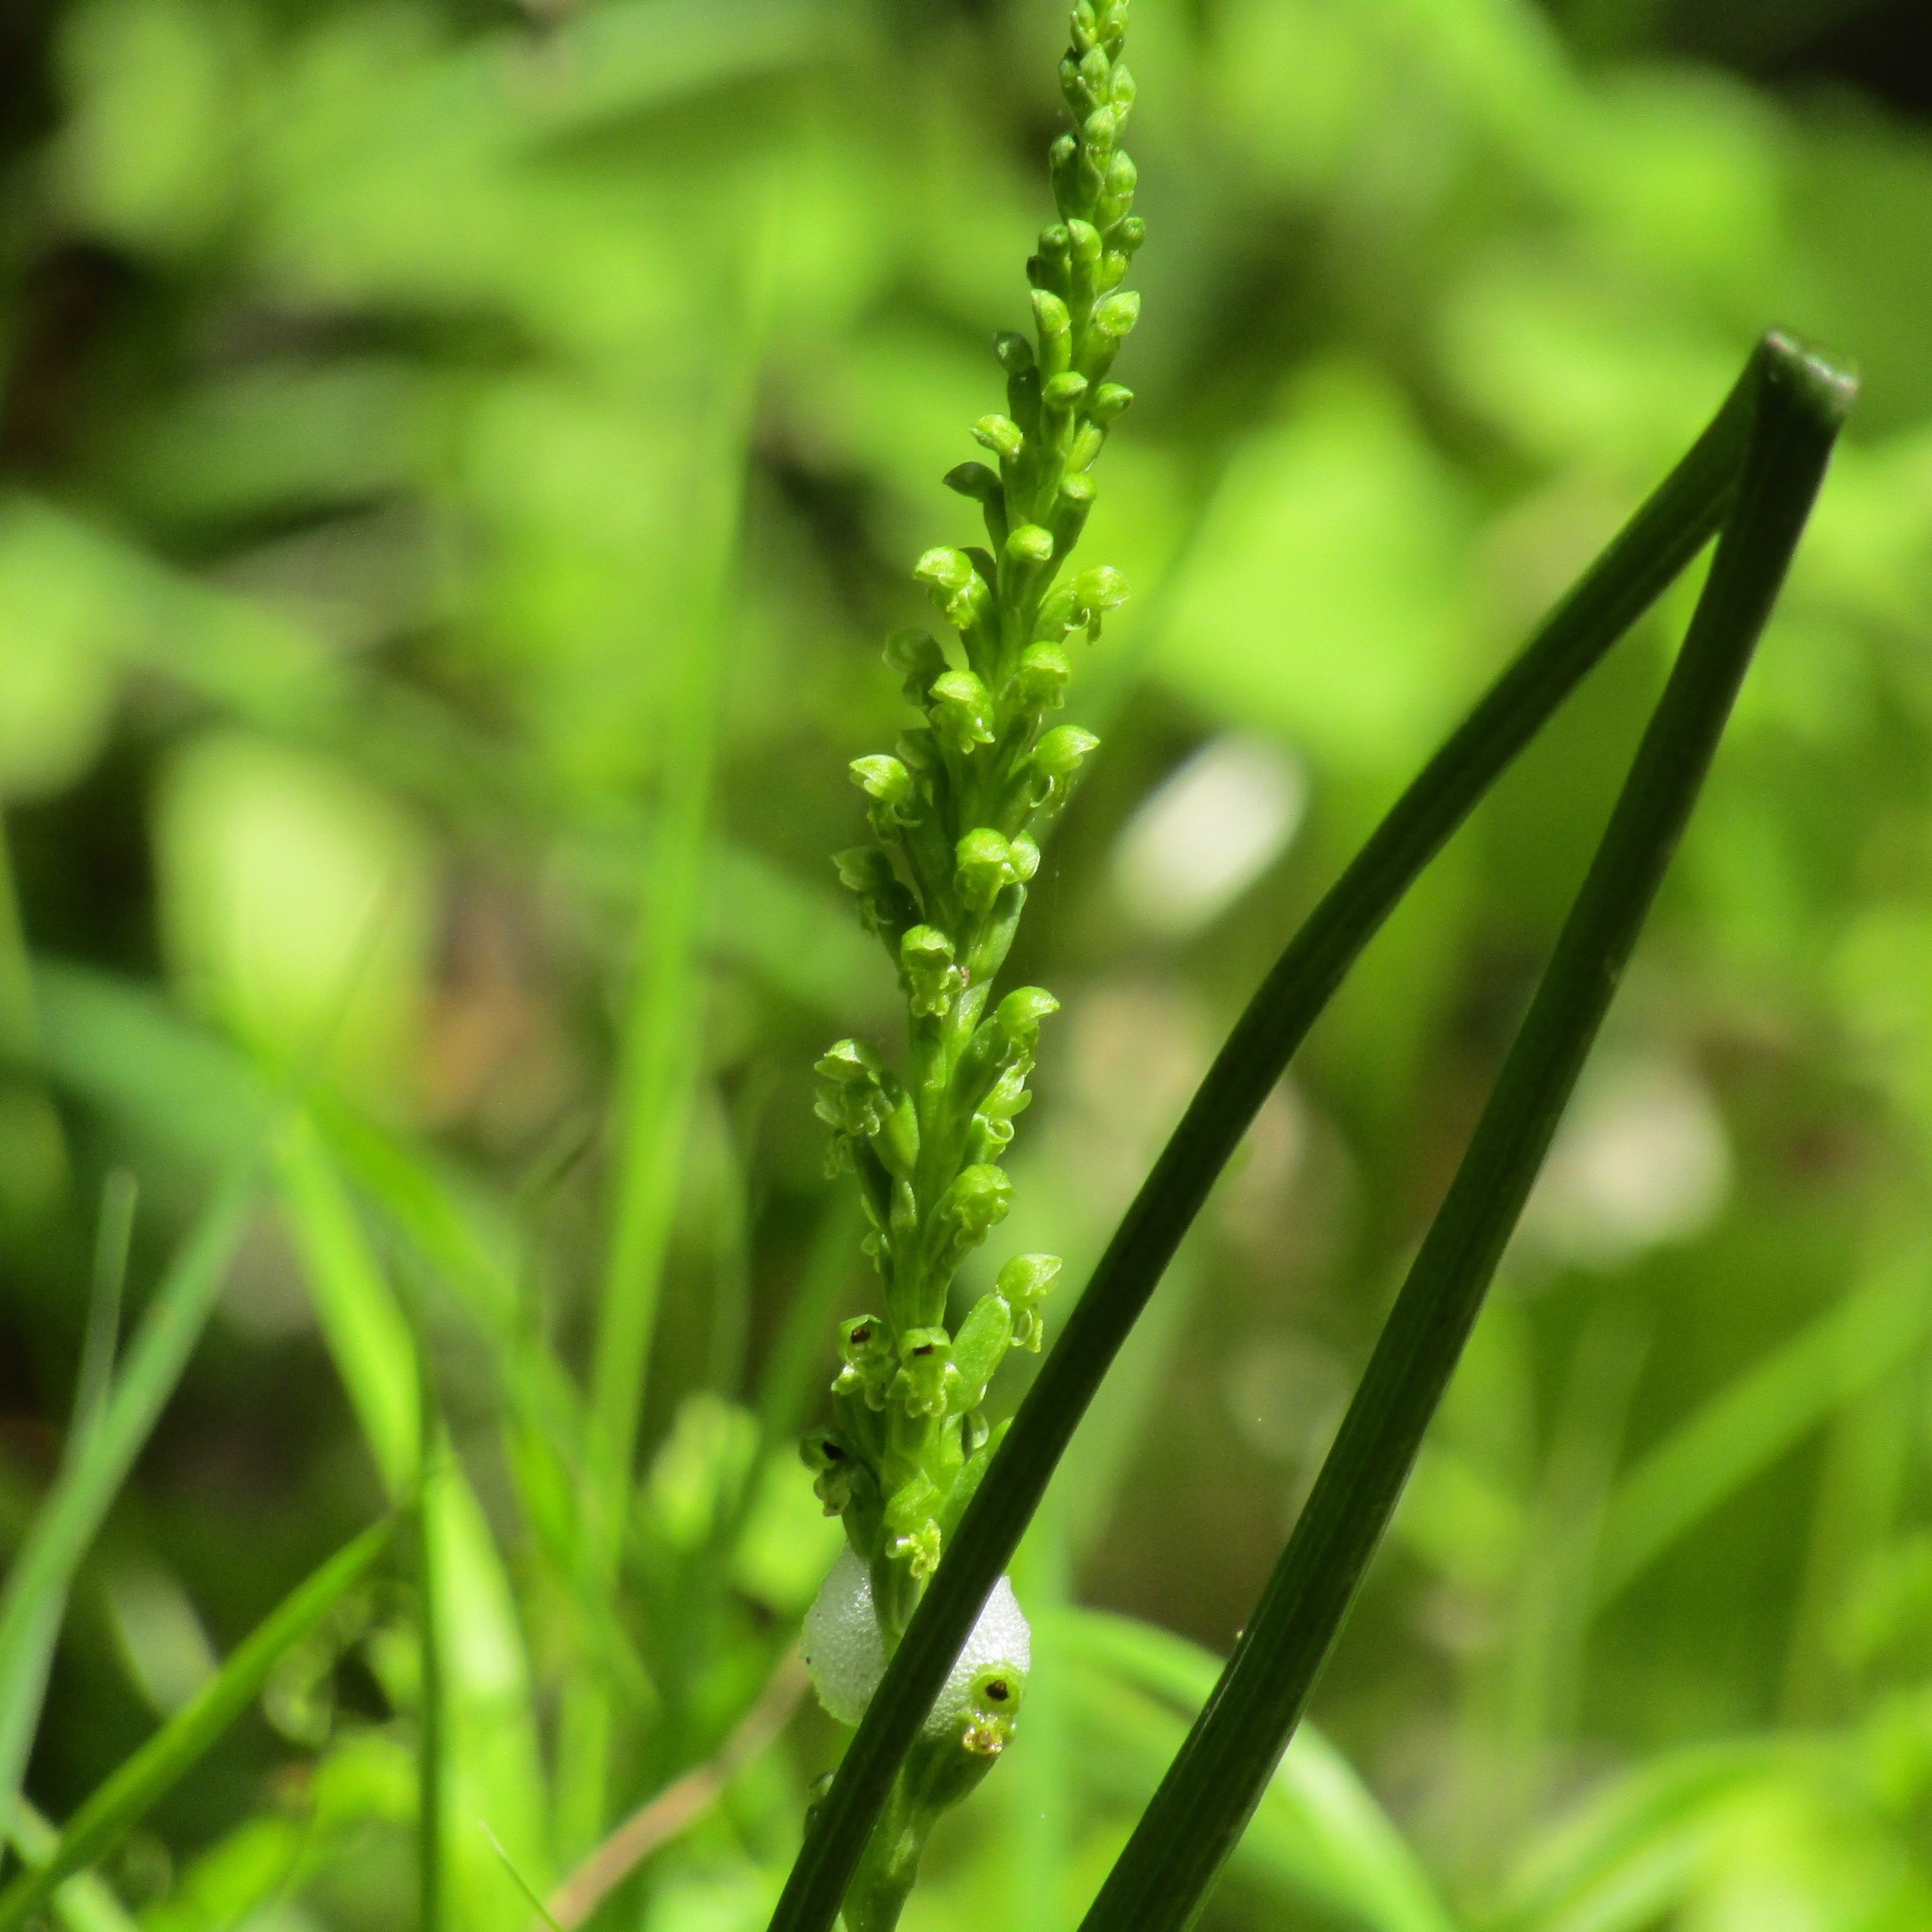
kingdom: Plantae
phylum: Tracheophyta
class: Liliopsida
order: Asparagales
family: Orchidaceae
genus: Microtis
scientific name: Microtis unifolia
